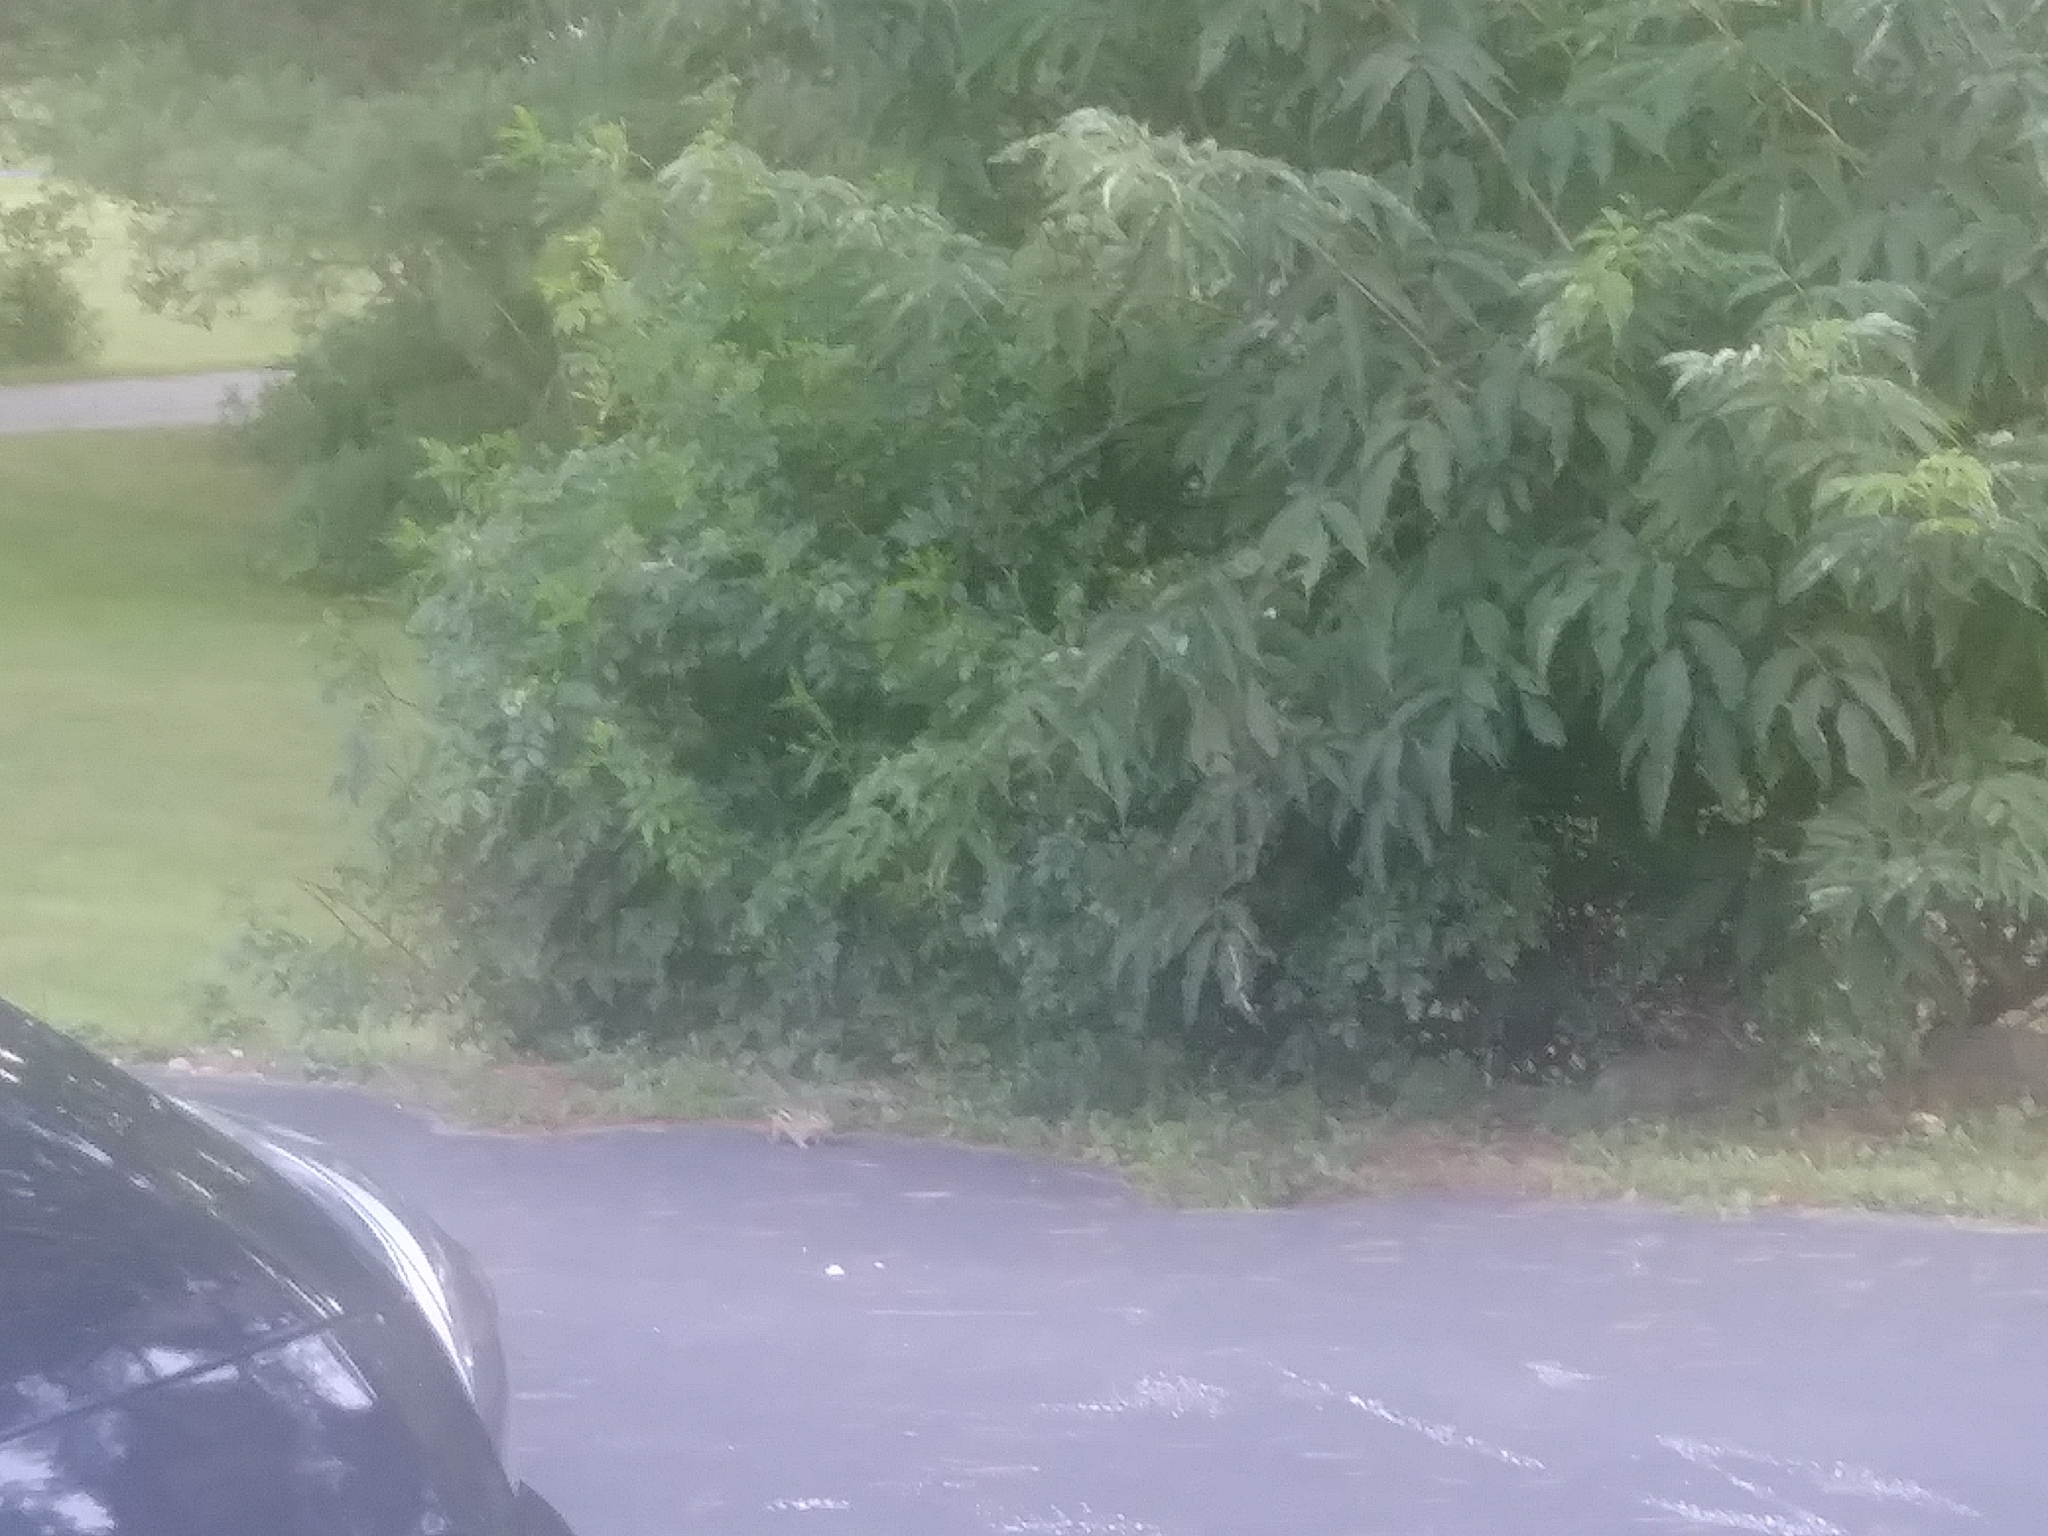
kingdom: Animalia
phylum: Chordata
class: Mammalia
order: Rodentia
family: Sciuridae
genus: Tamias
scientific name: Tamias striatus
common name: Eastern chipmunk
